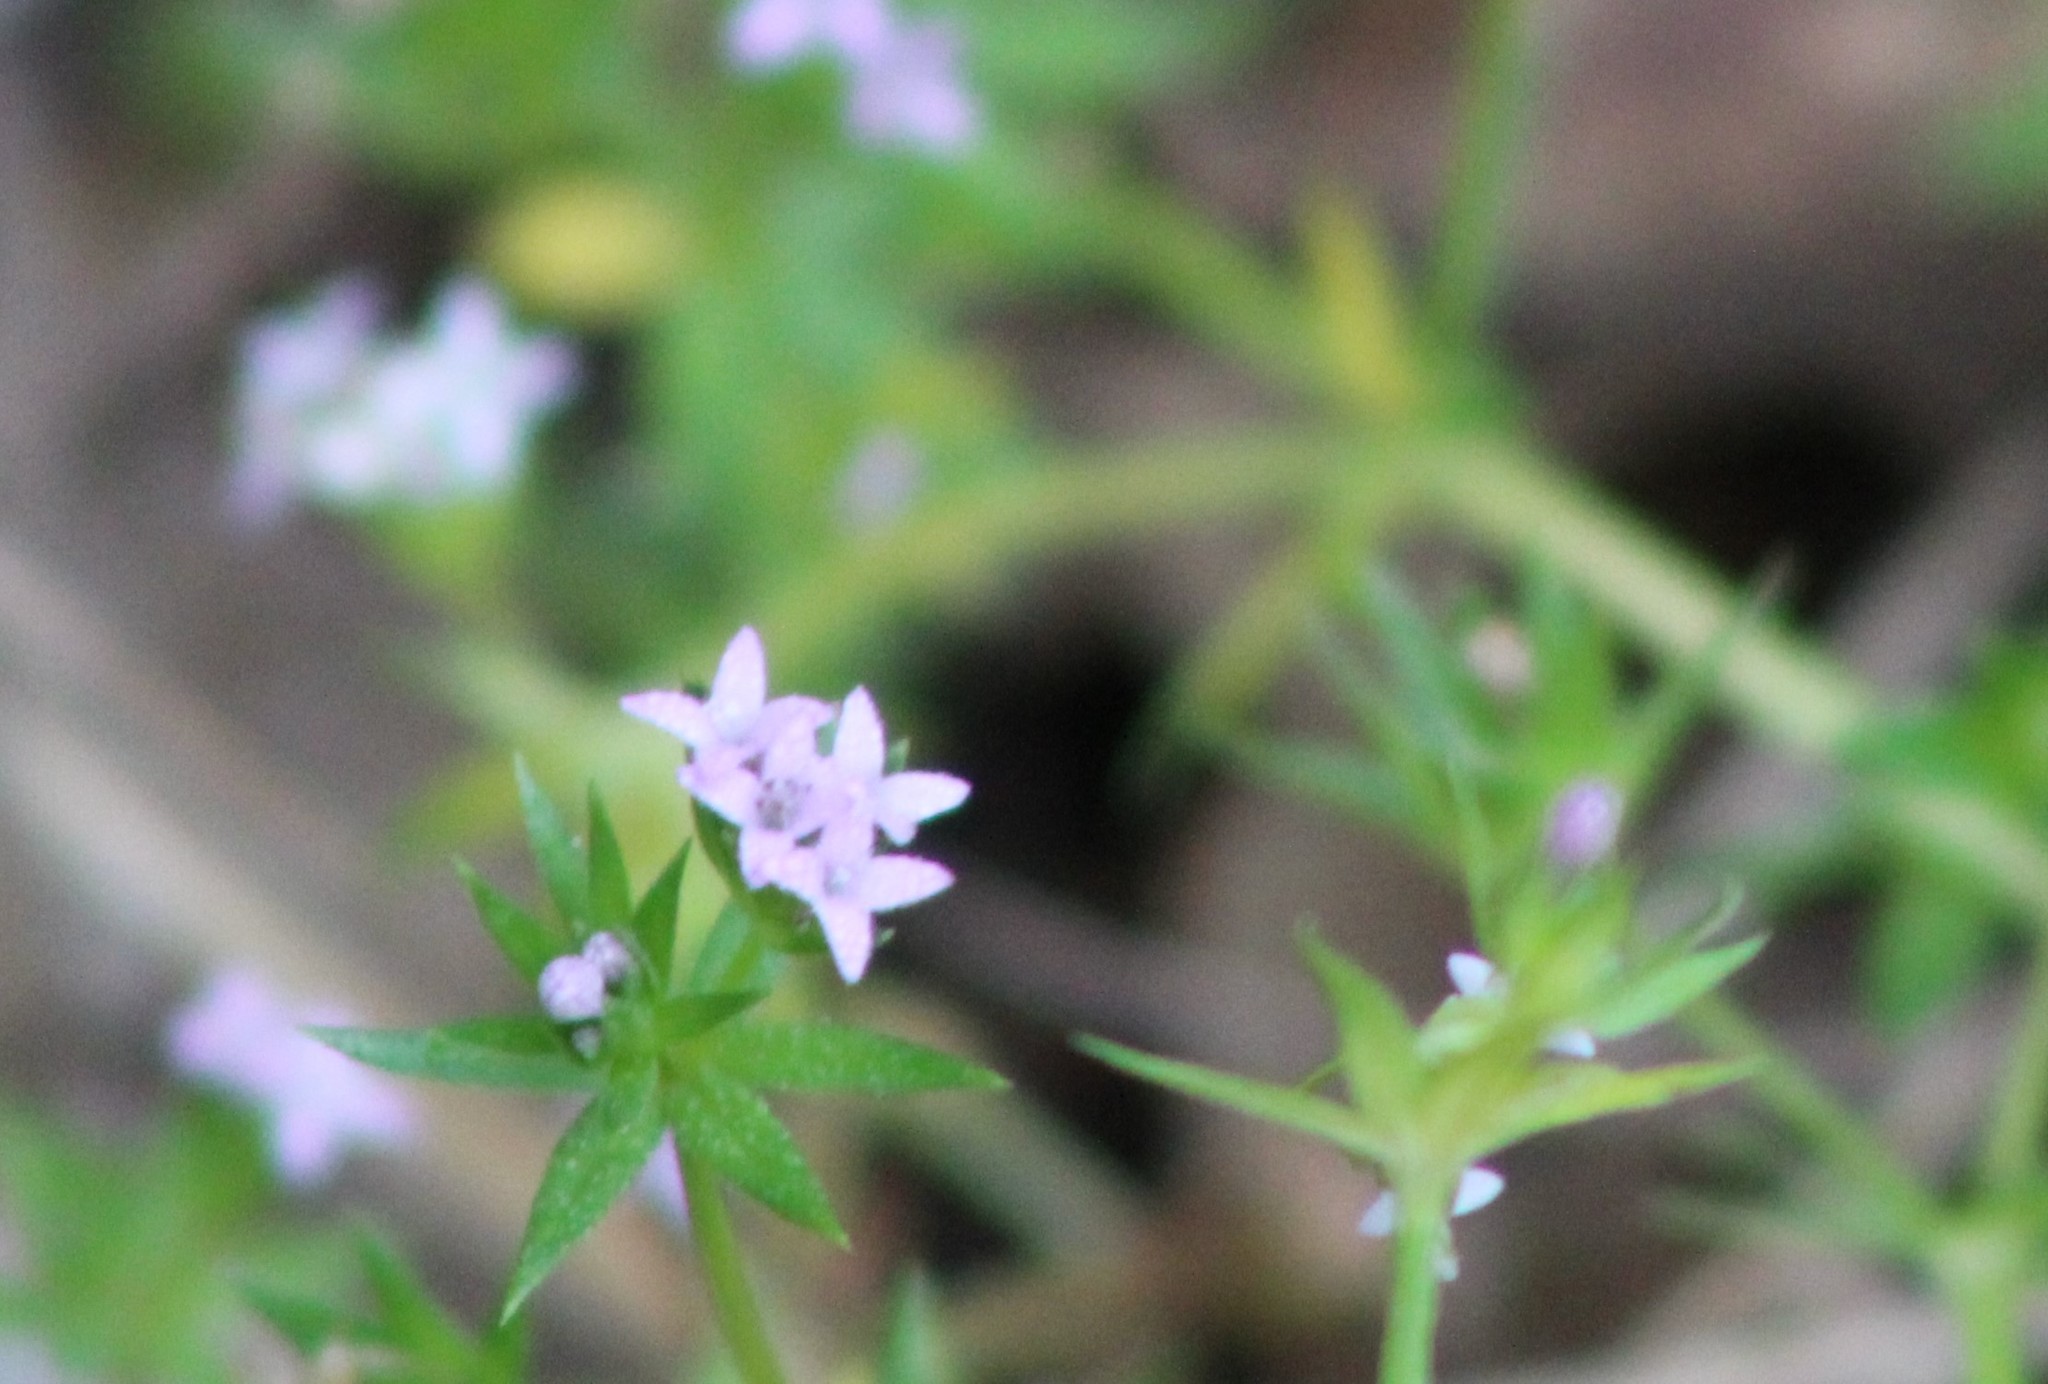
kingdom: Plantae
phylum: Tracheophyta
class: Magnoliopsida
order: Gentianales
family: Rubiaceae
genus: Sherardia
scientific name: Sherardia arvensis
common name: Field madder
